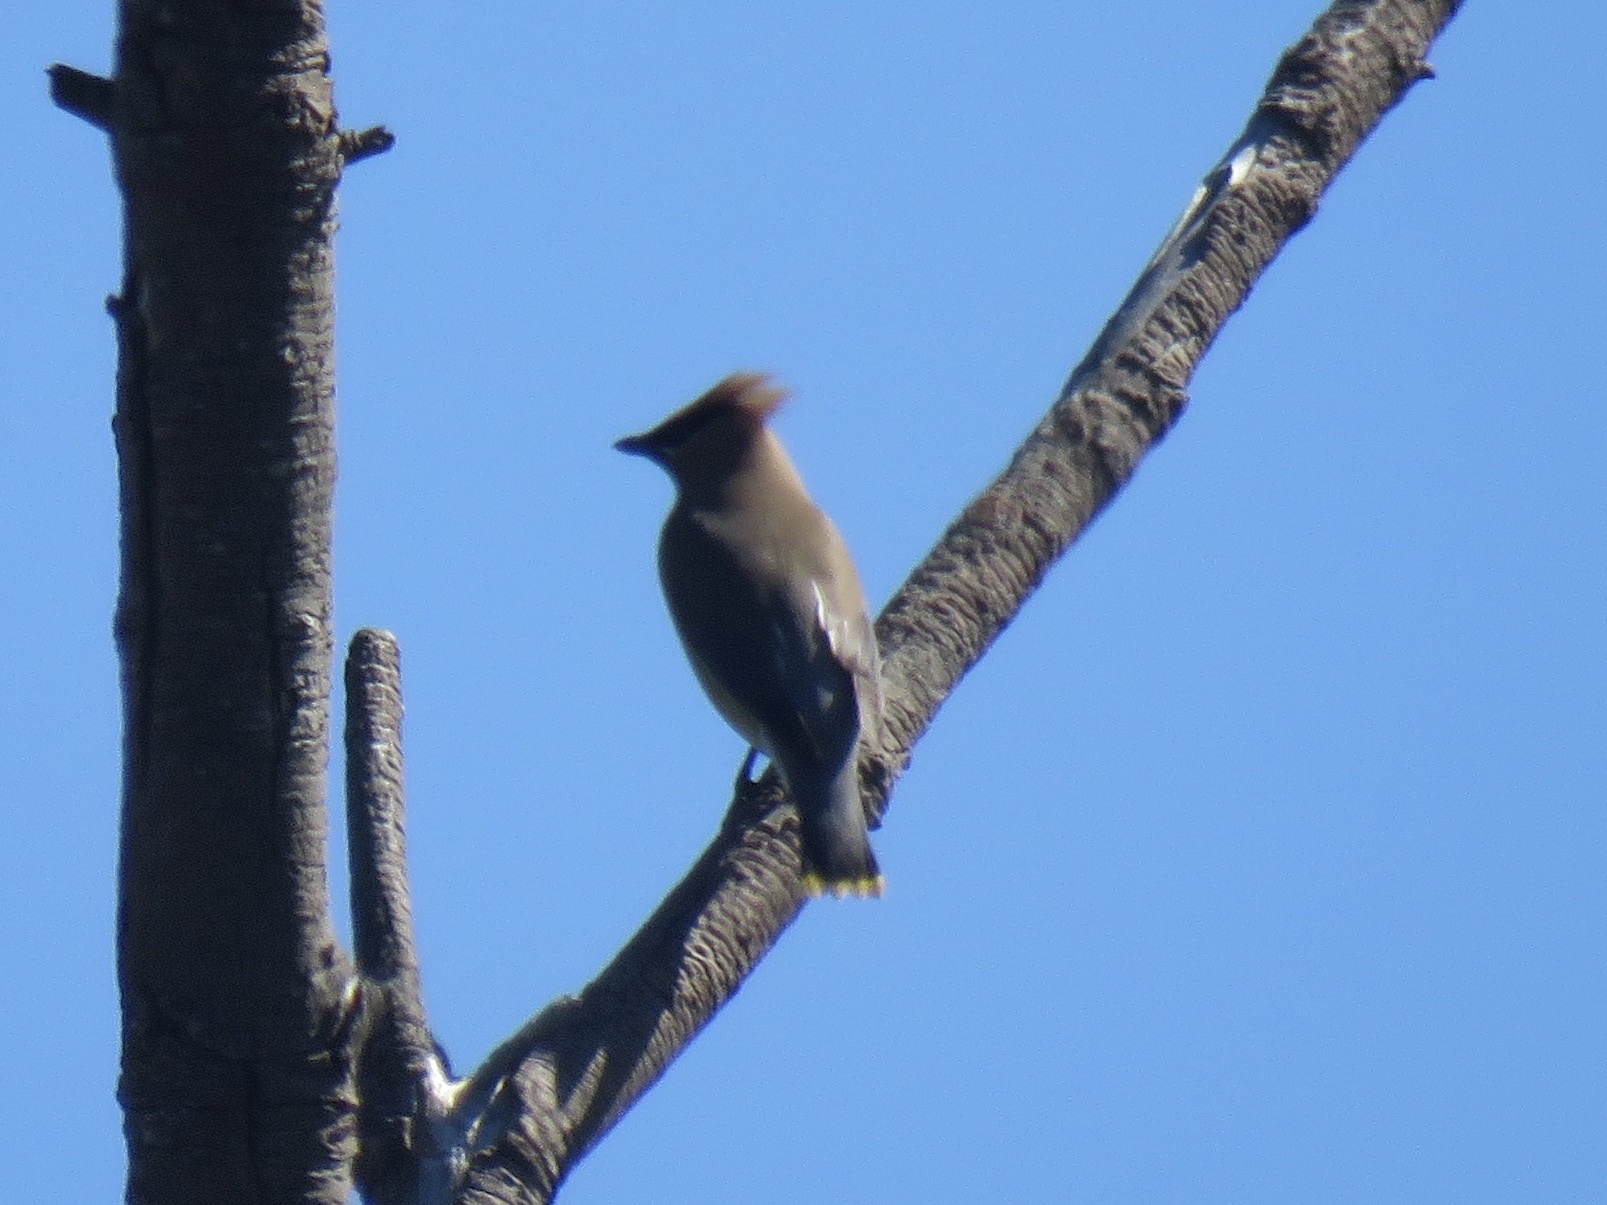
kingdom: Animalia
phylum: Chordata
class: Aves
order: Passeriformes
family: Bombycillidae
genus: Bombycilla
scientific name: Bombycilla cedrorum
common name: Cedar waxwing
